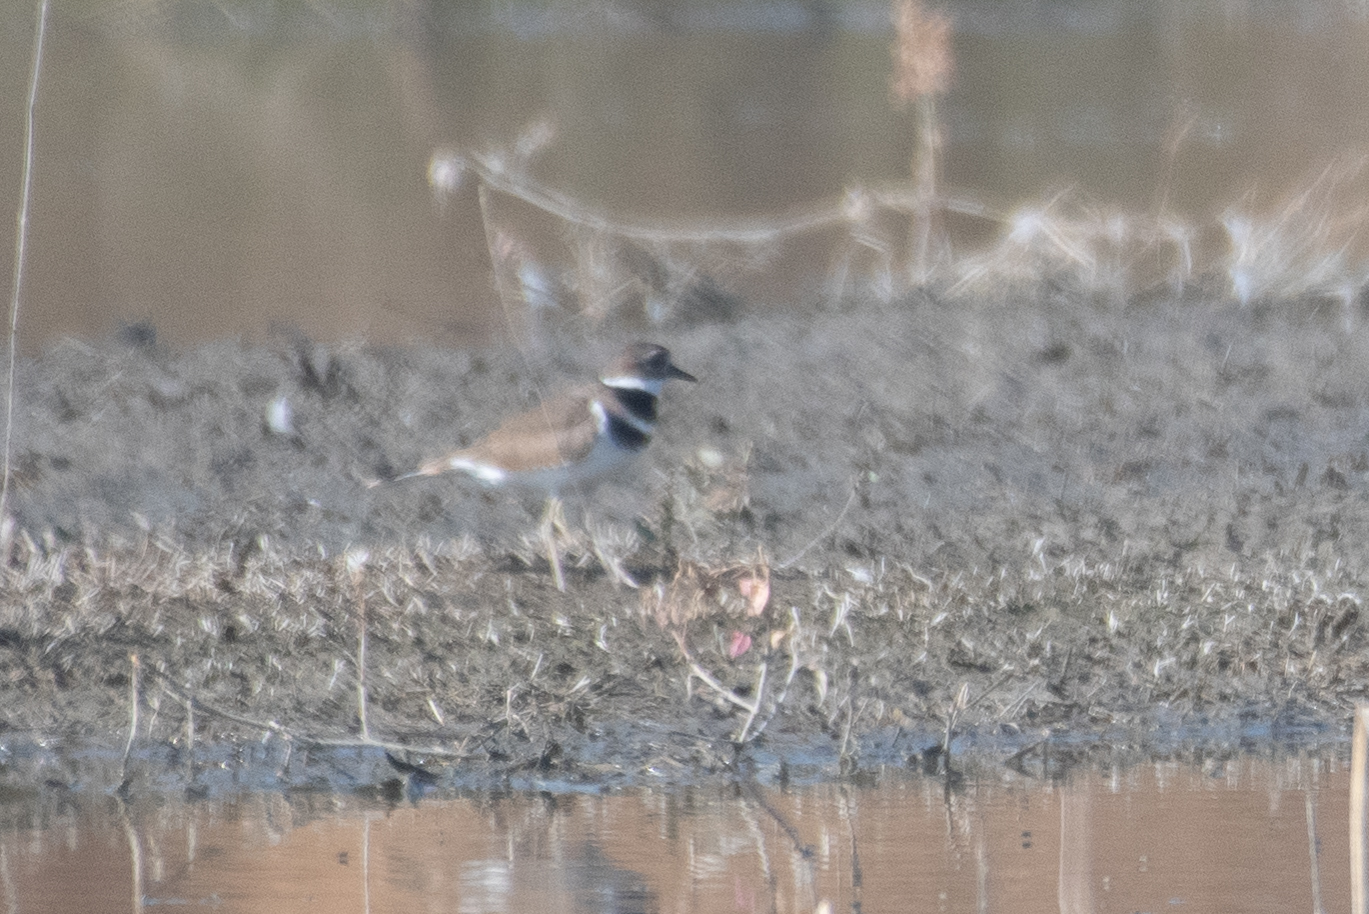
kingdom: Animalia
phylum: Chordata
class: Aves
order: Charadriiformes
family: Charadriidae
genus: Charadrius
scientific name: Charadrius vociferus
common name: Killdeer
